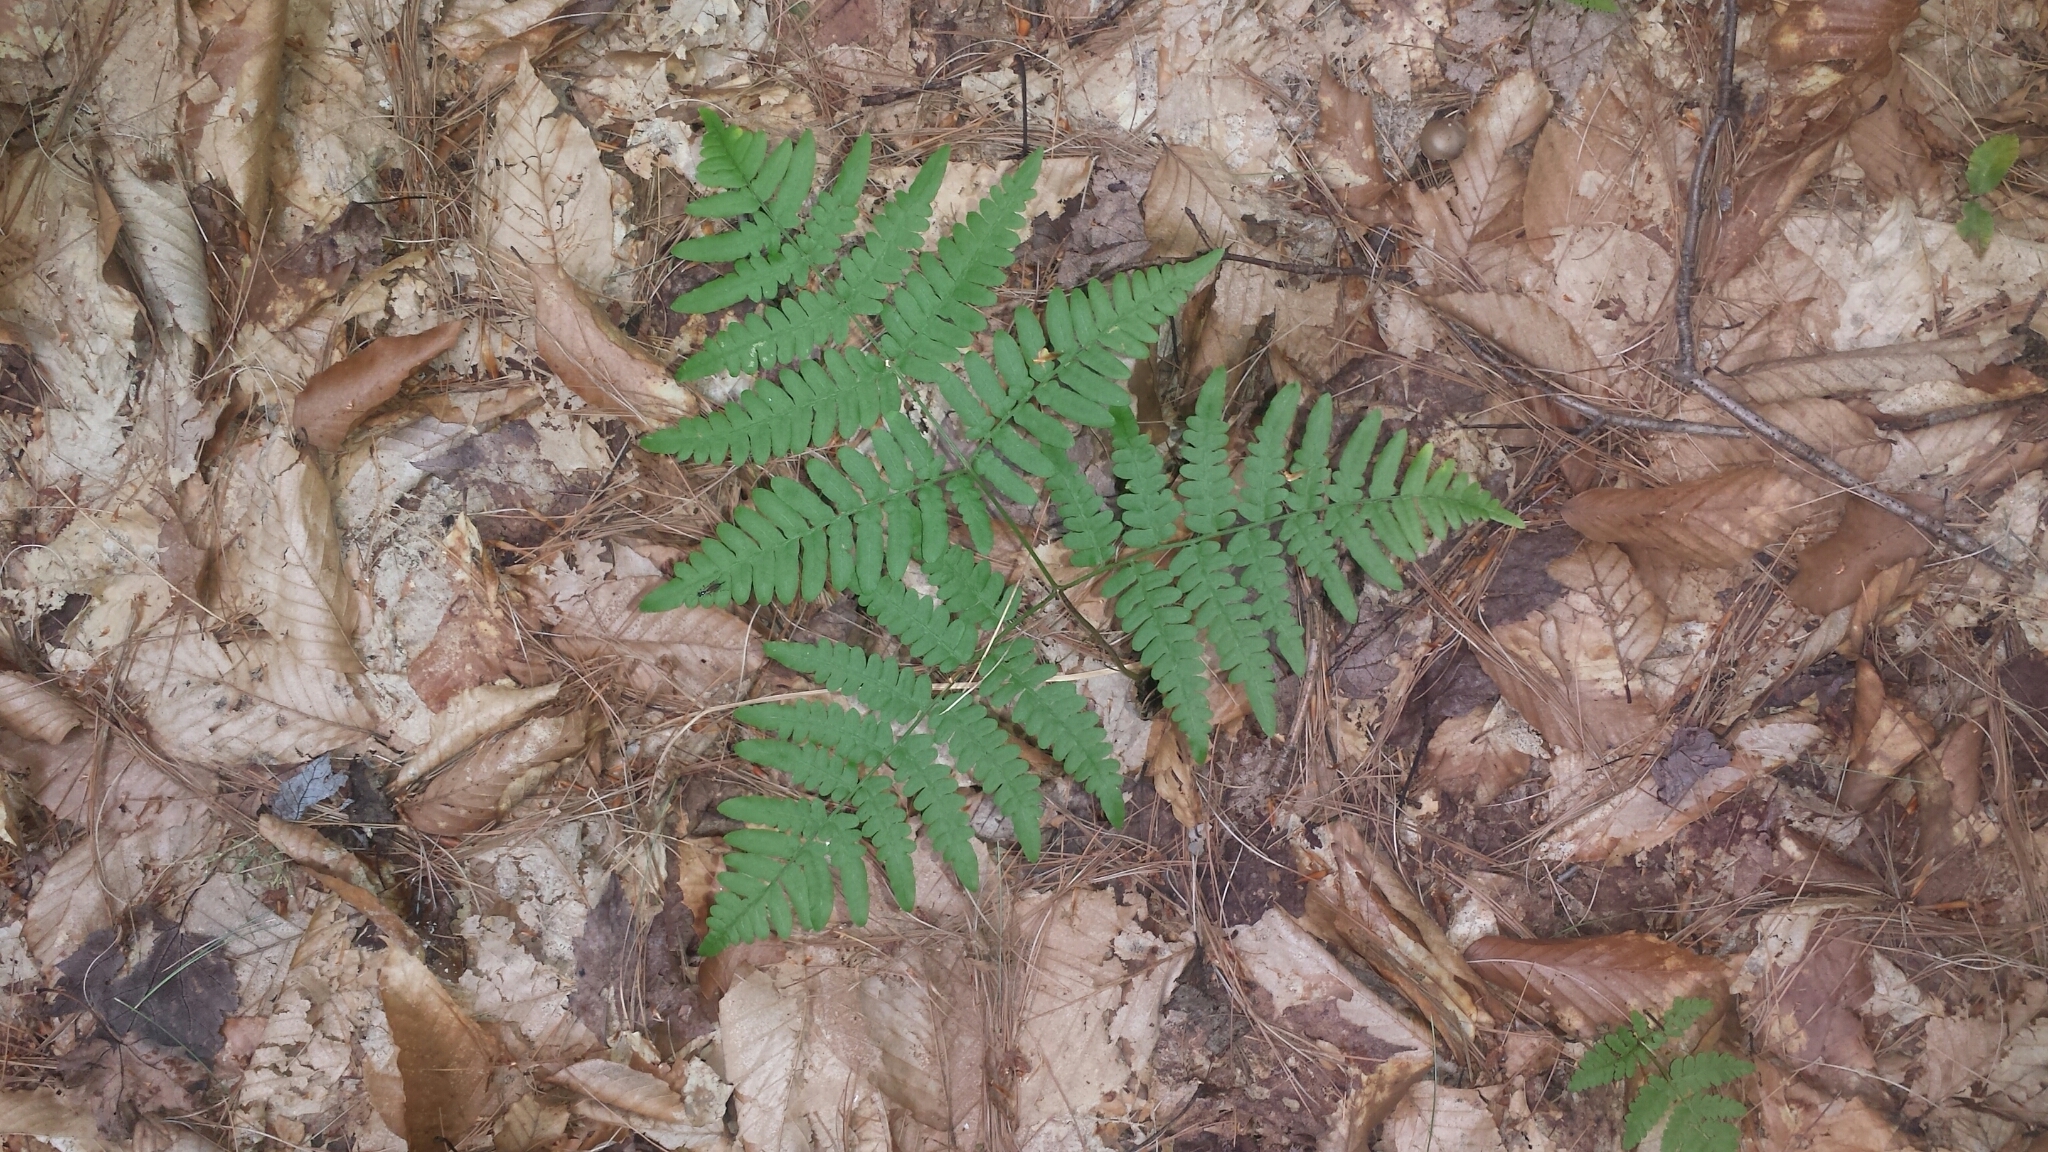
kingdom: Plantae
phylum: Tracheophyta
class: Polypodiopsida
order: Polypodiales
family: Dennstaedtiaceae
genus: Pteridium
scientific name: Pteridium aquilinum
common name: Bracken
